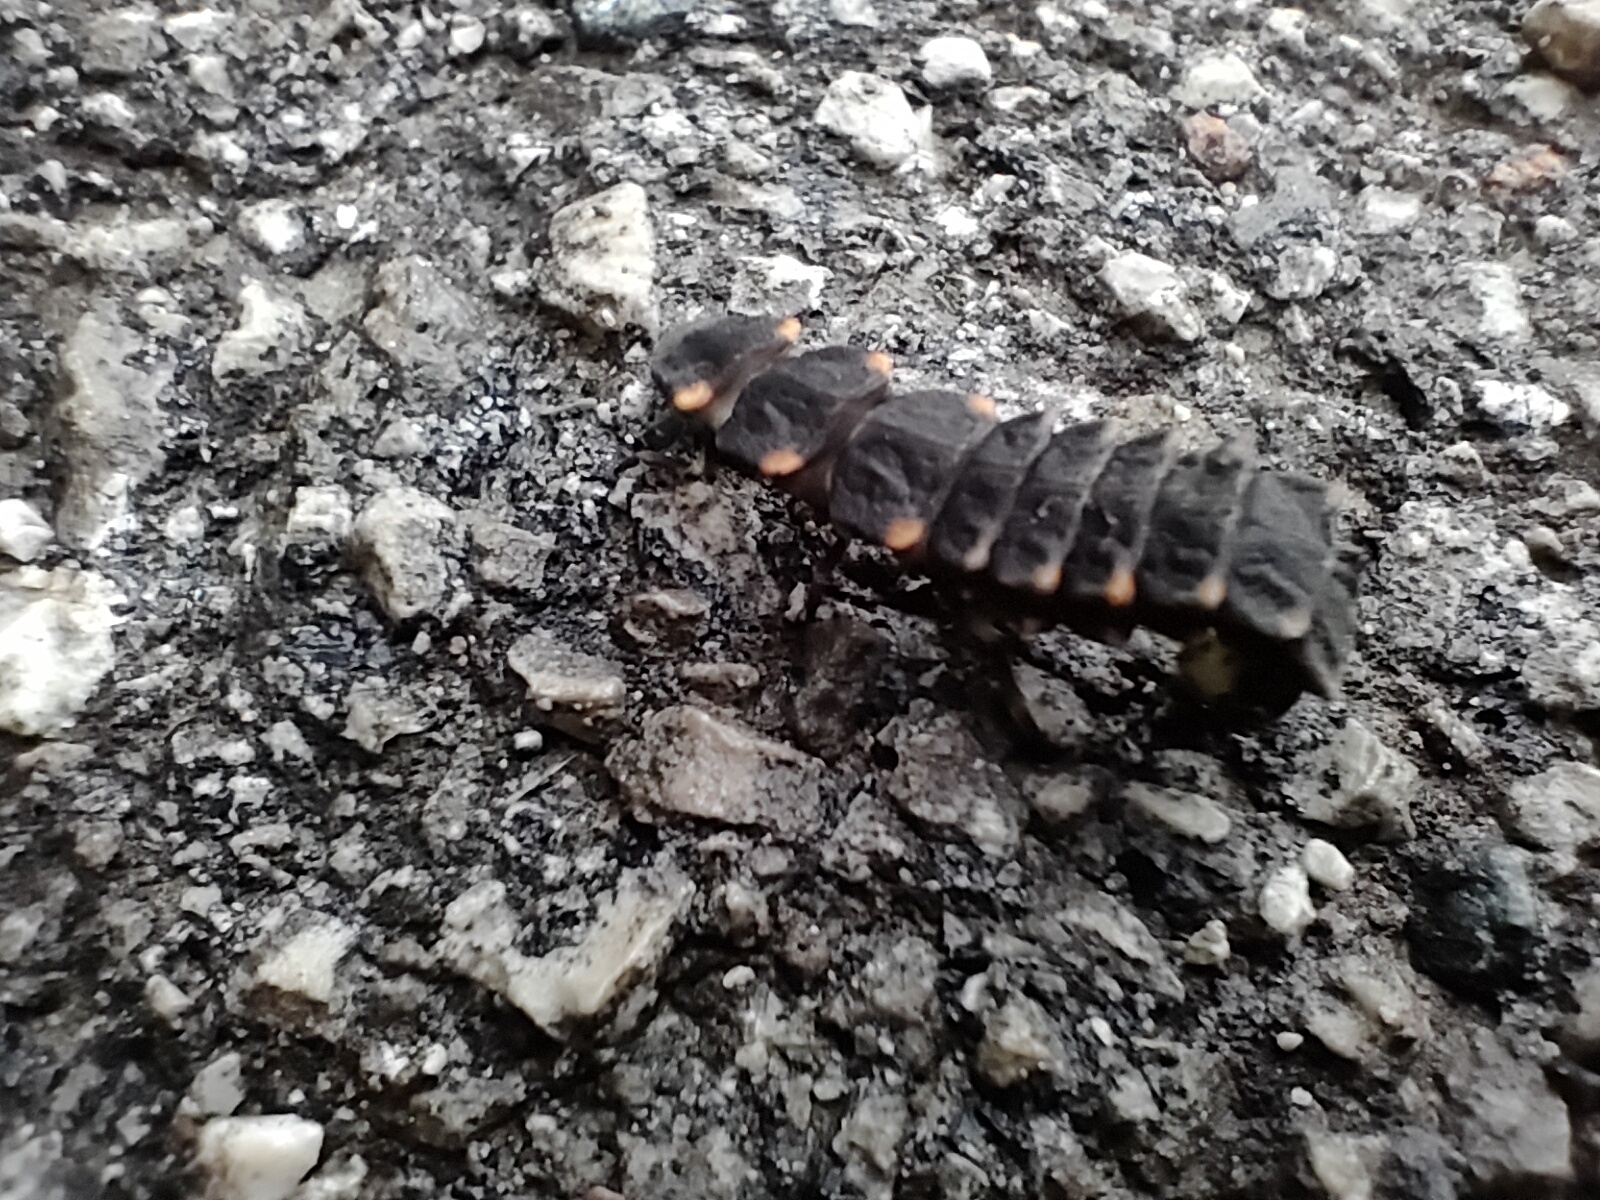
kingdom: Animalia
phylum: Arthropoda
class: Insecta
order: Coleoptera
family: Lampyridae
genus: Lampyris
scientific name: Lampyris noctiluca
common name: Glow-worm
